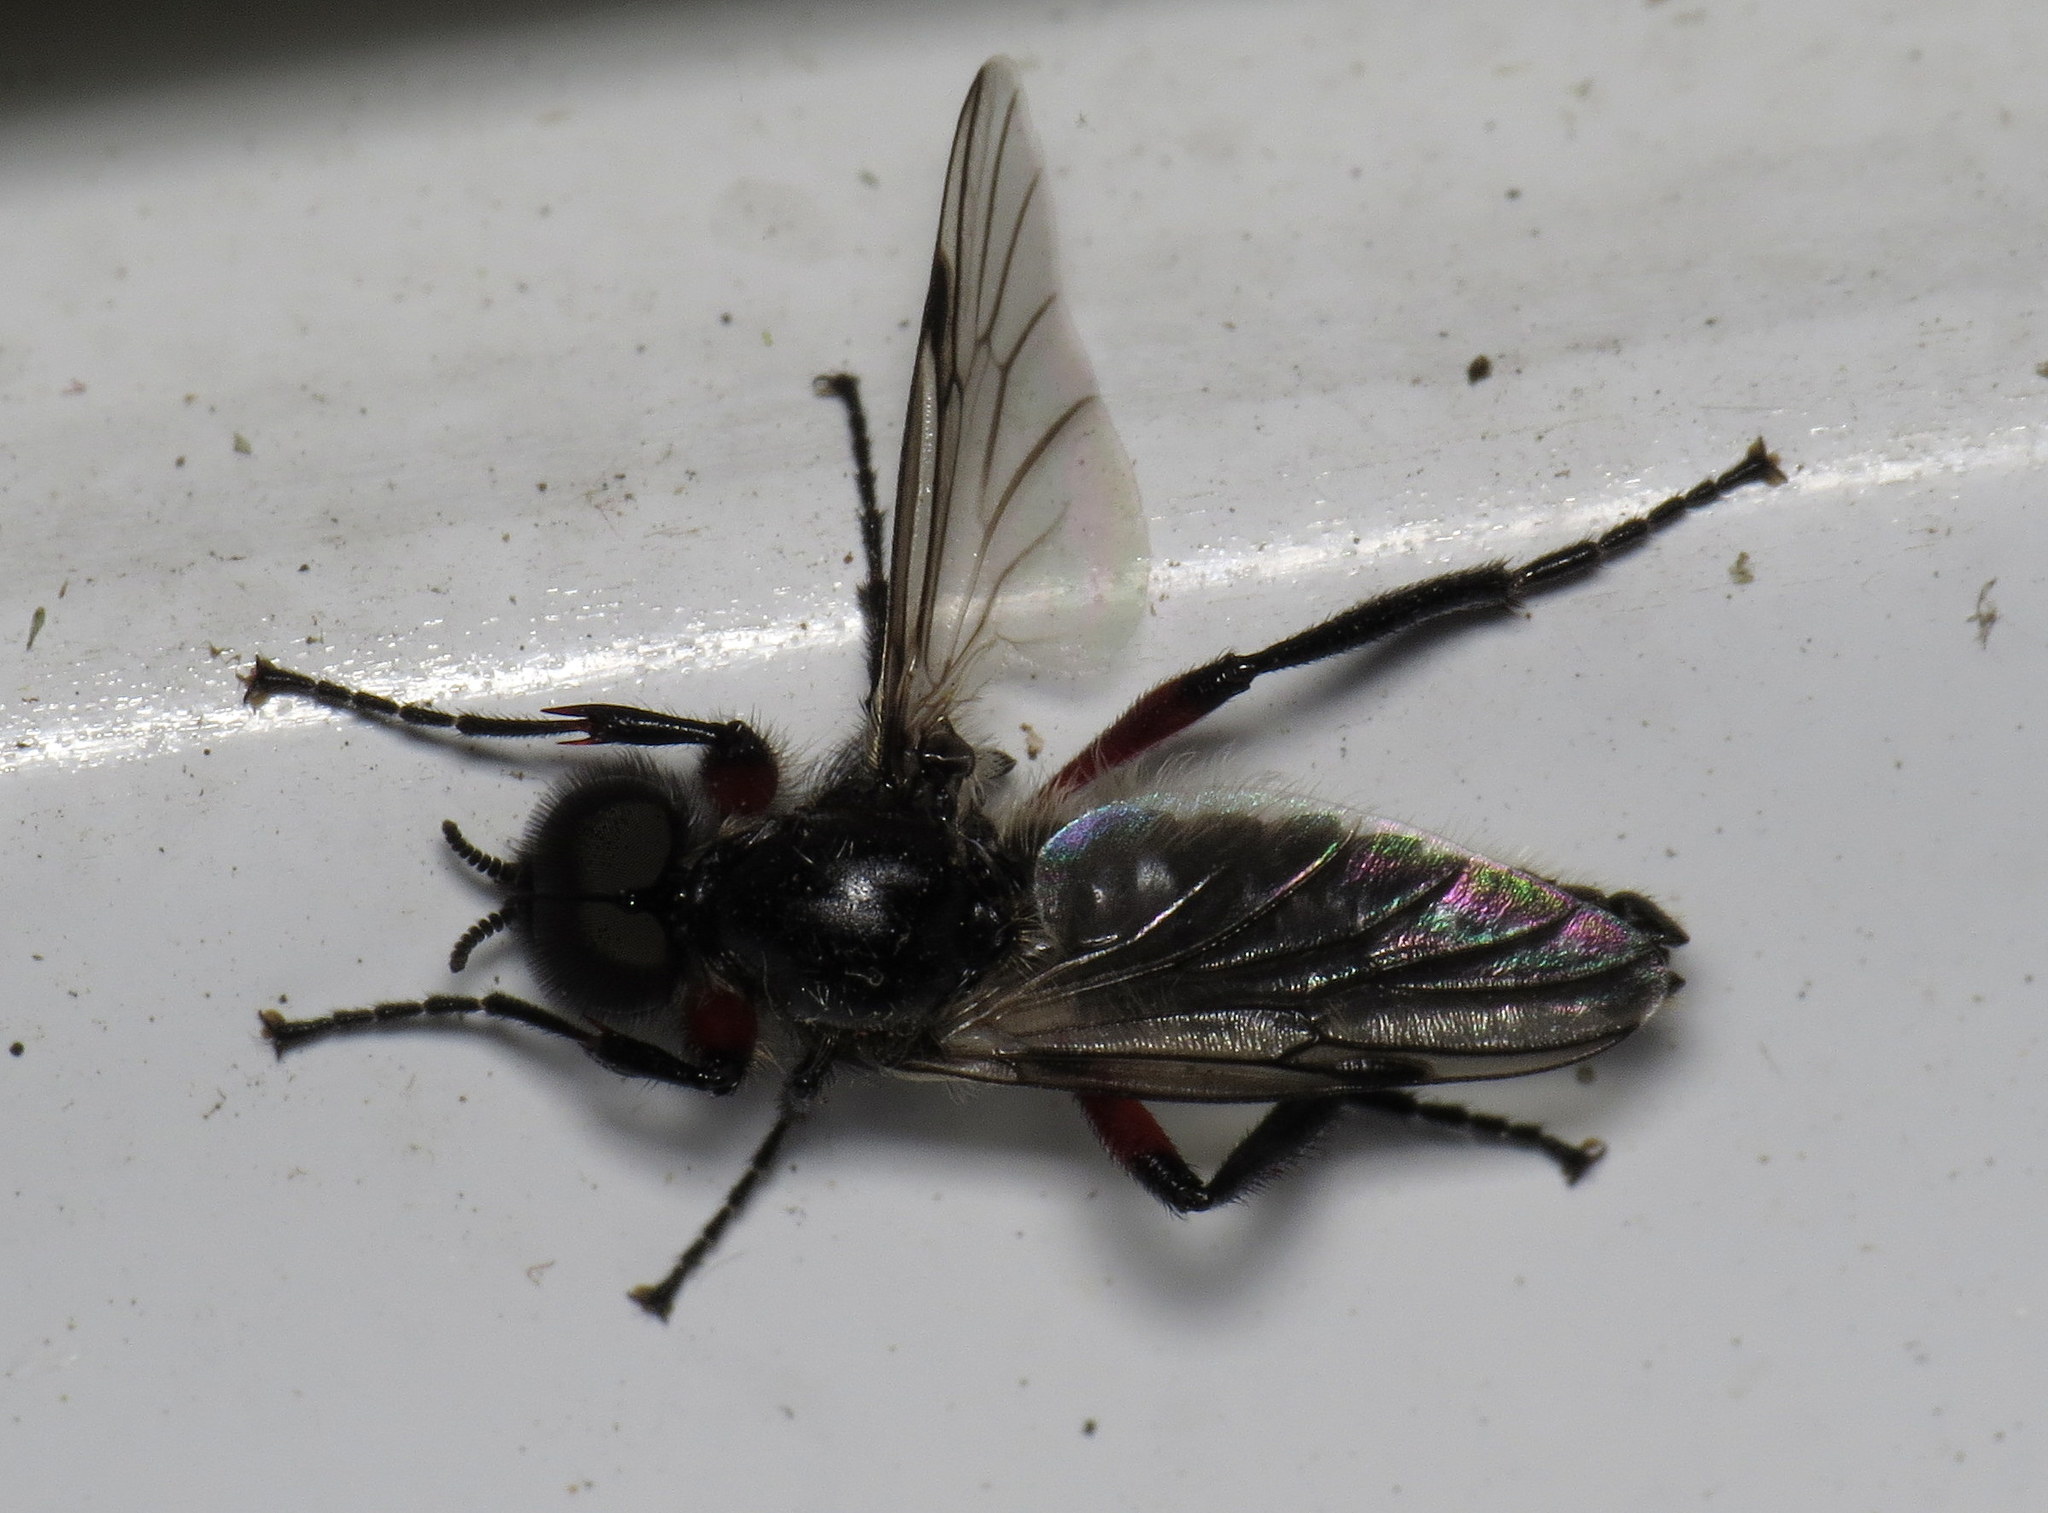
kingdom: Animalia
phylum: Arthropoda
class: Insecta
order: Diptera
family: Bibionidae
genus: Bibio
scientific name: Bibio femoratus
